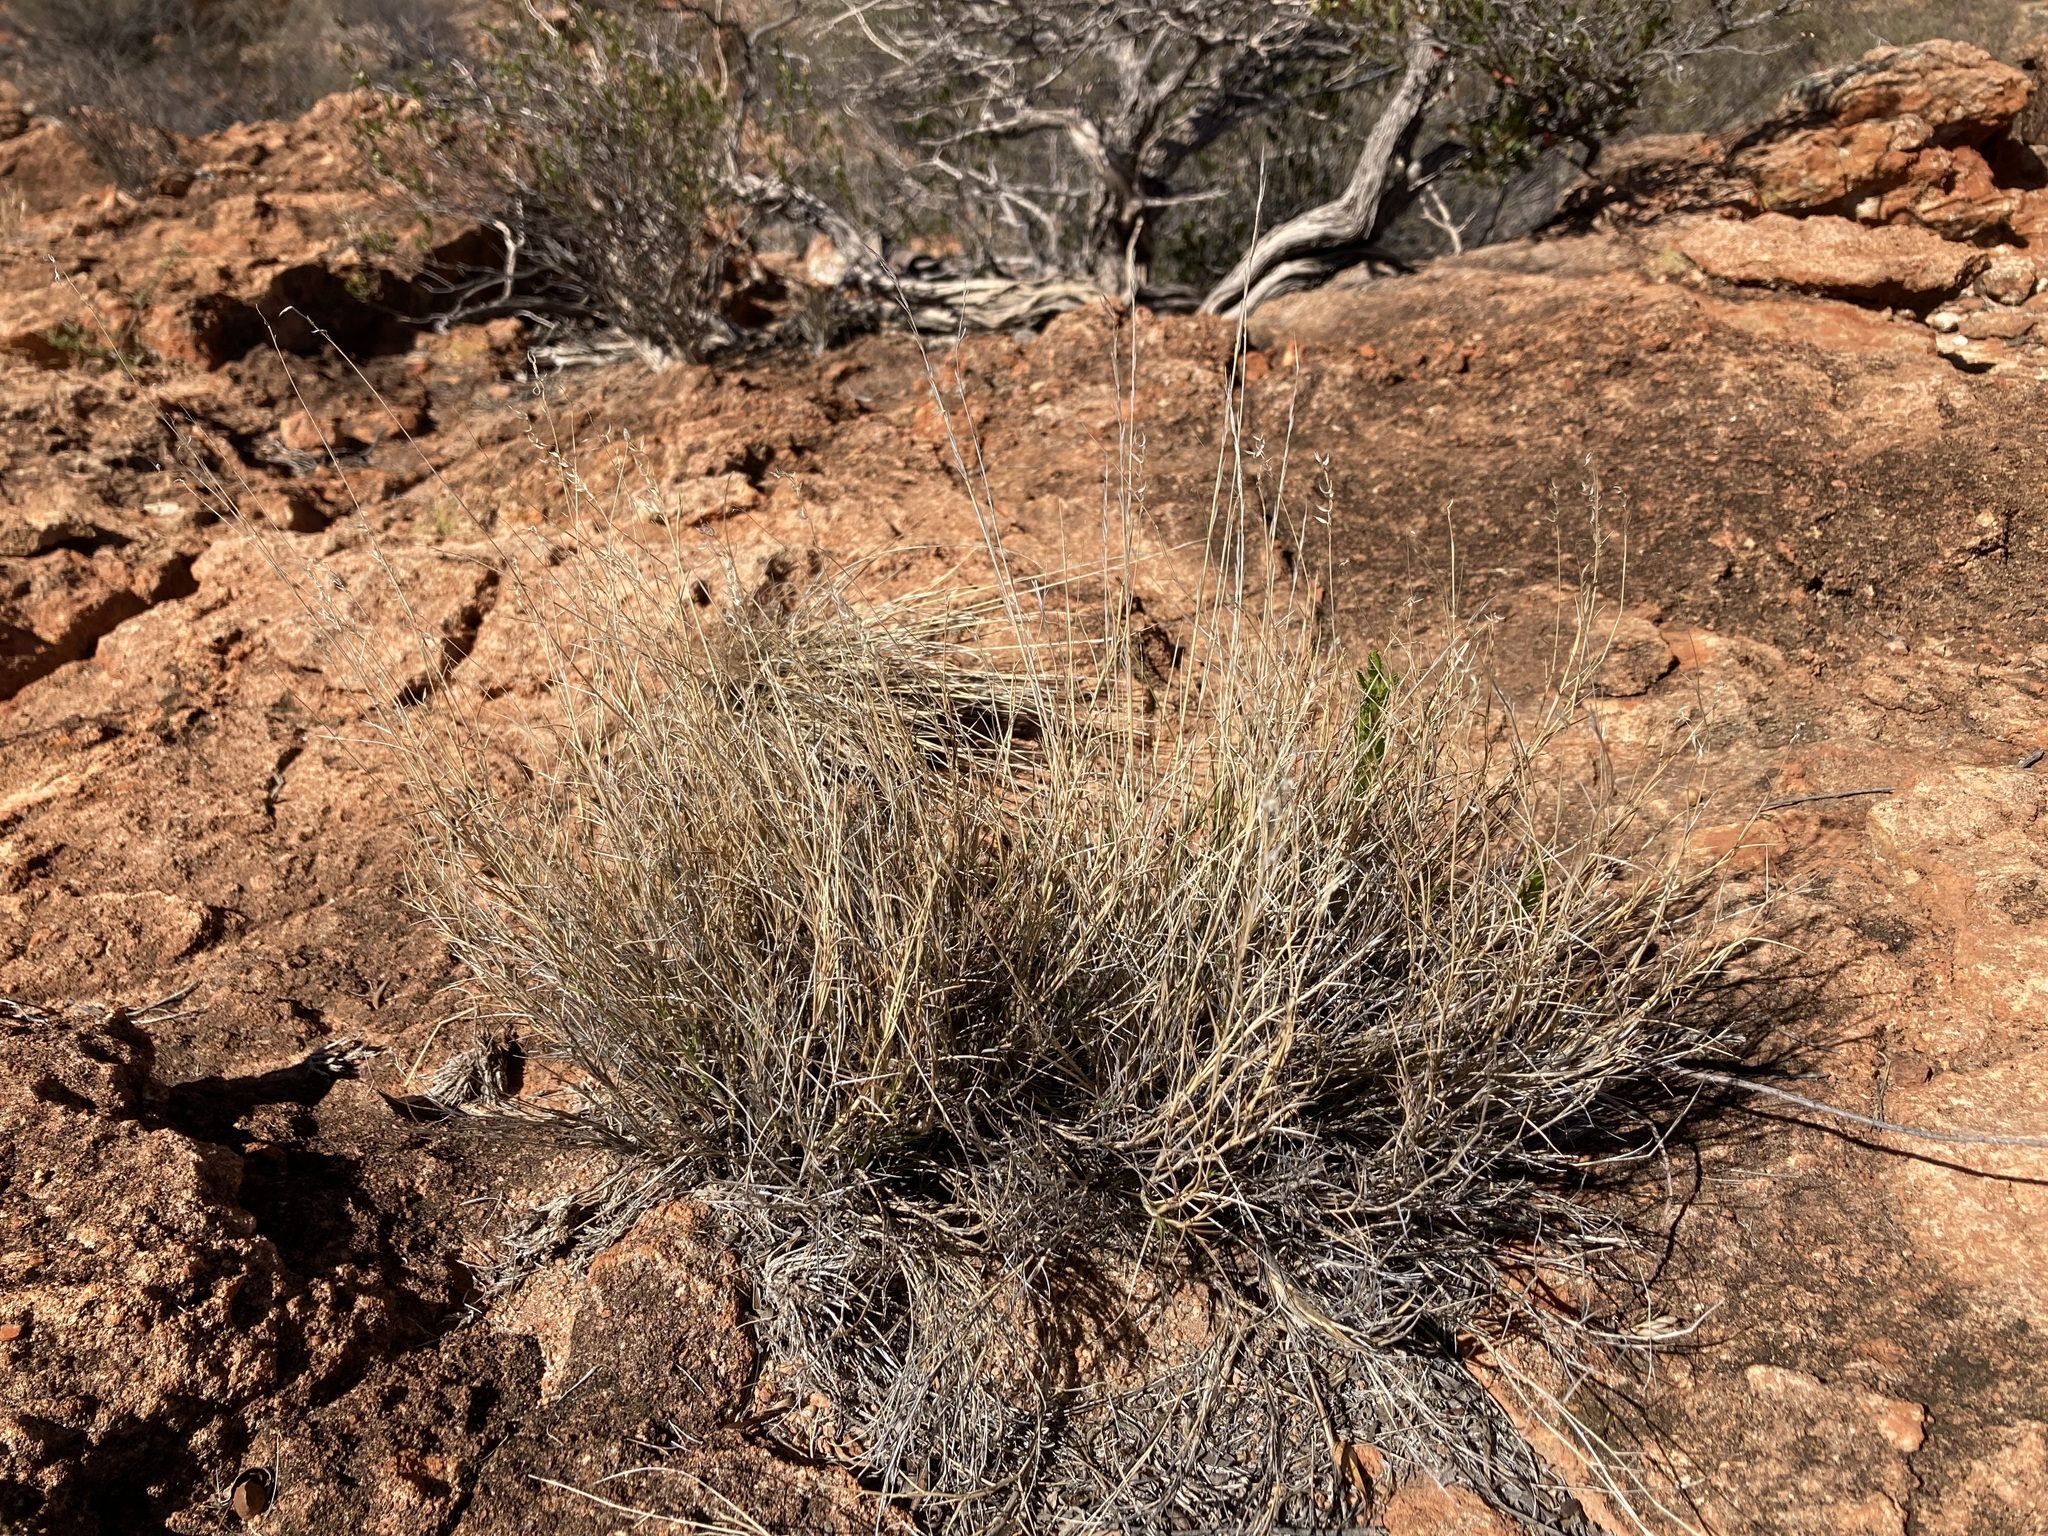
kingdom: Plantae
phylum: Tracheophyta
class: Liliopsida
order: Poales
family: Poaceae
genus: Eriachne
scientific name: Eriachne mucronata
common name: Mountain wanderrie grass
